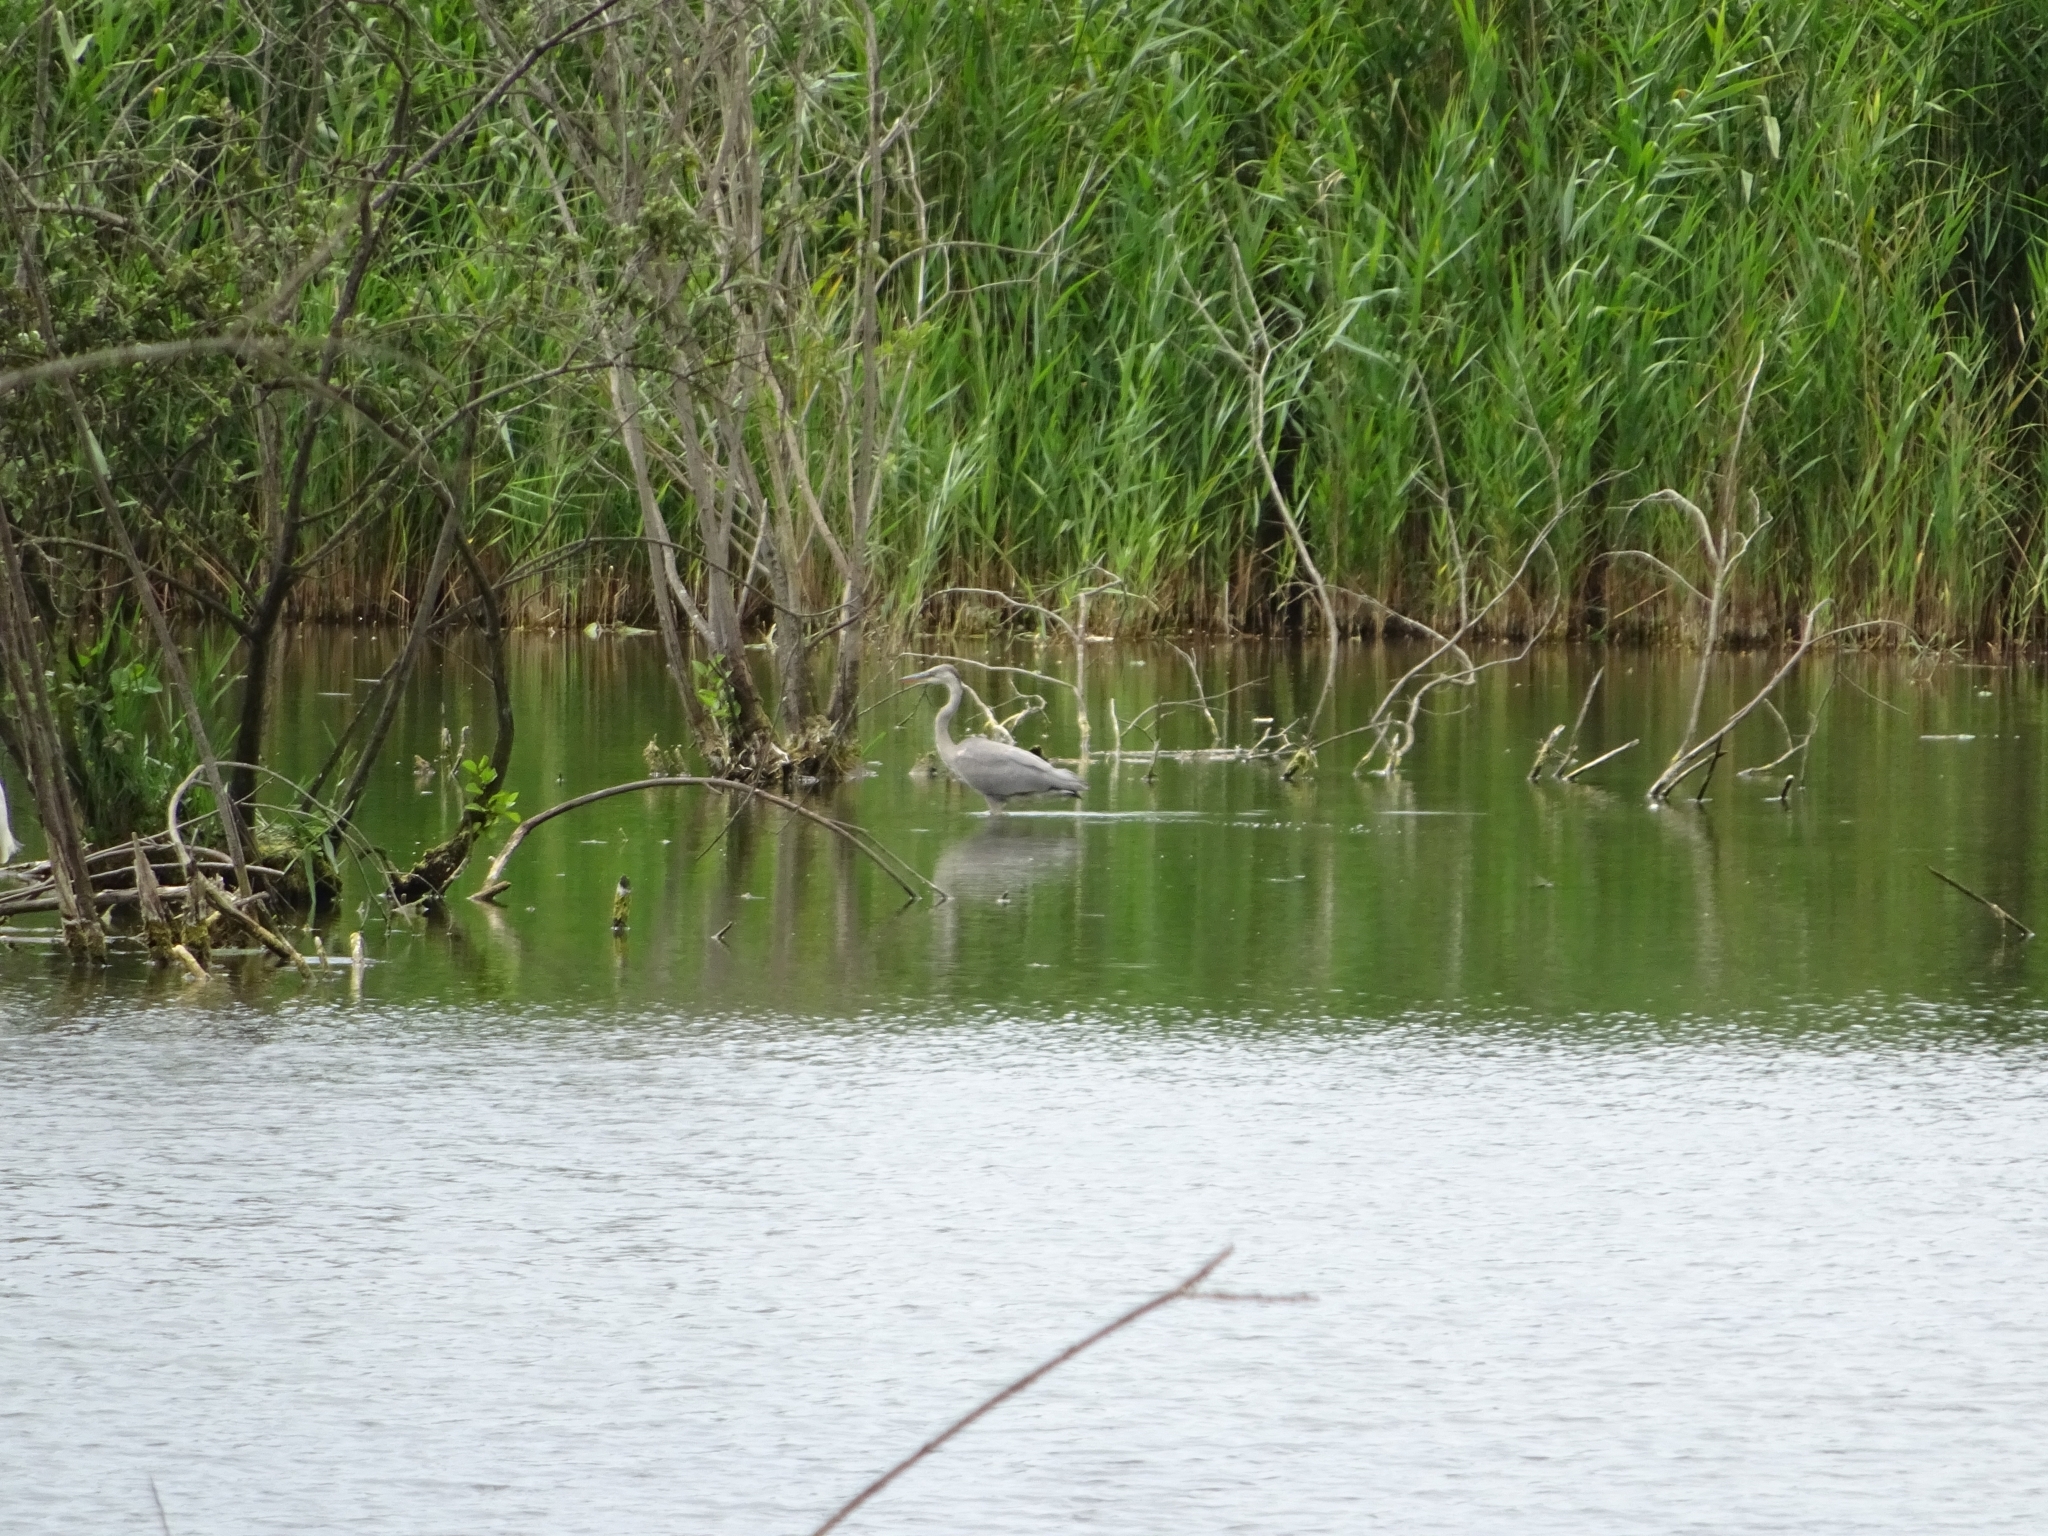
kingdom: Animalia
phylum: Chordata
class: Aves
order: Pelecaniformes
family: Ardeidae
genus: Ardea
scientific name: Ardea cinerea
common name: Grey heron
